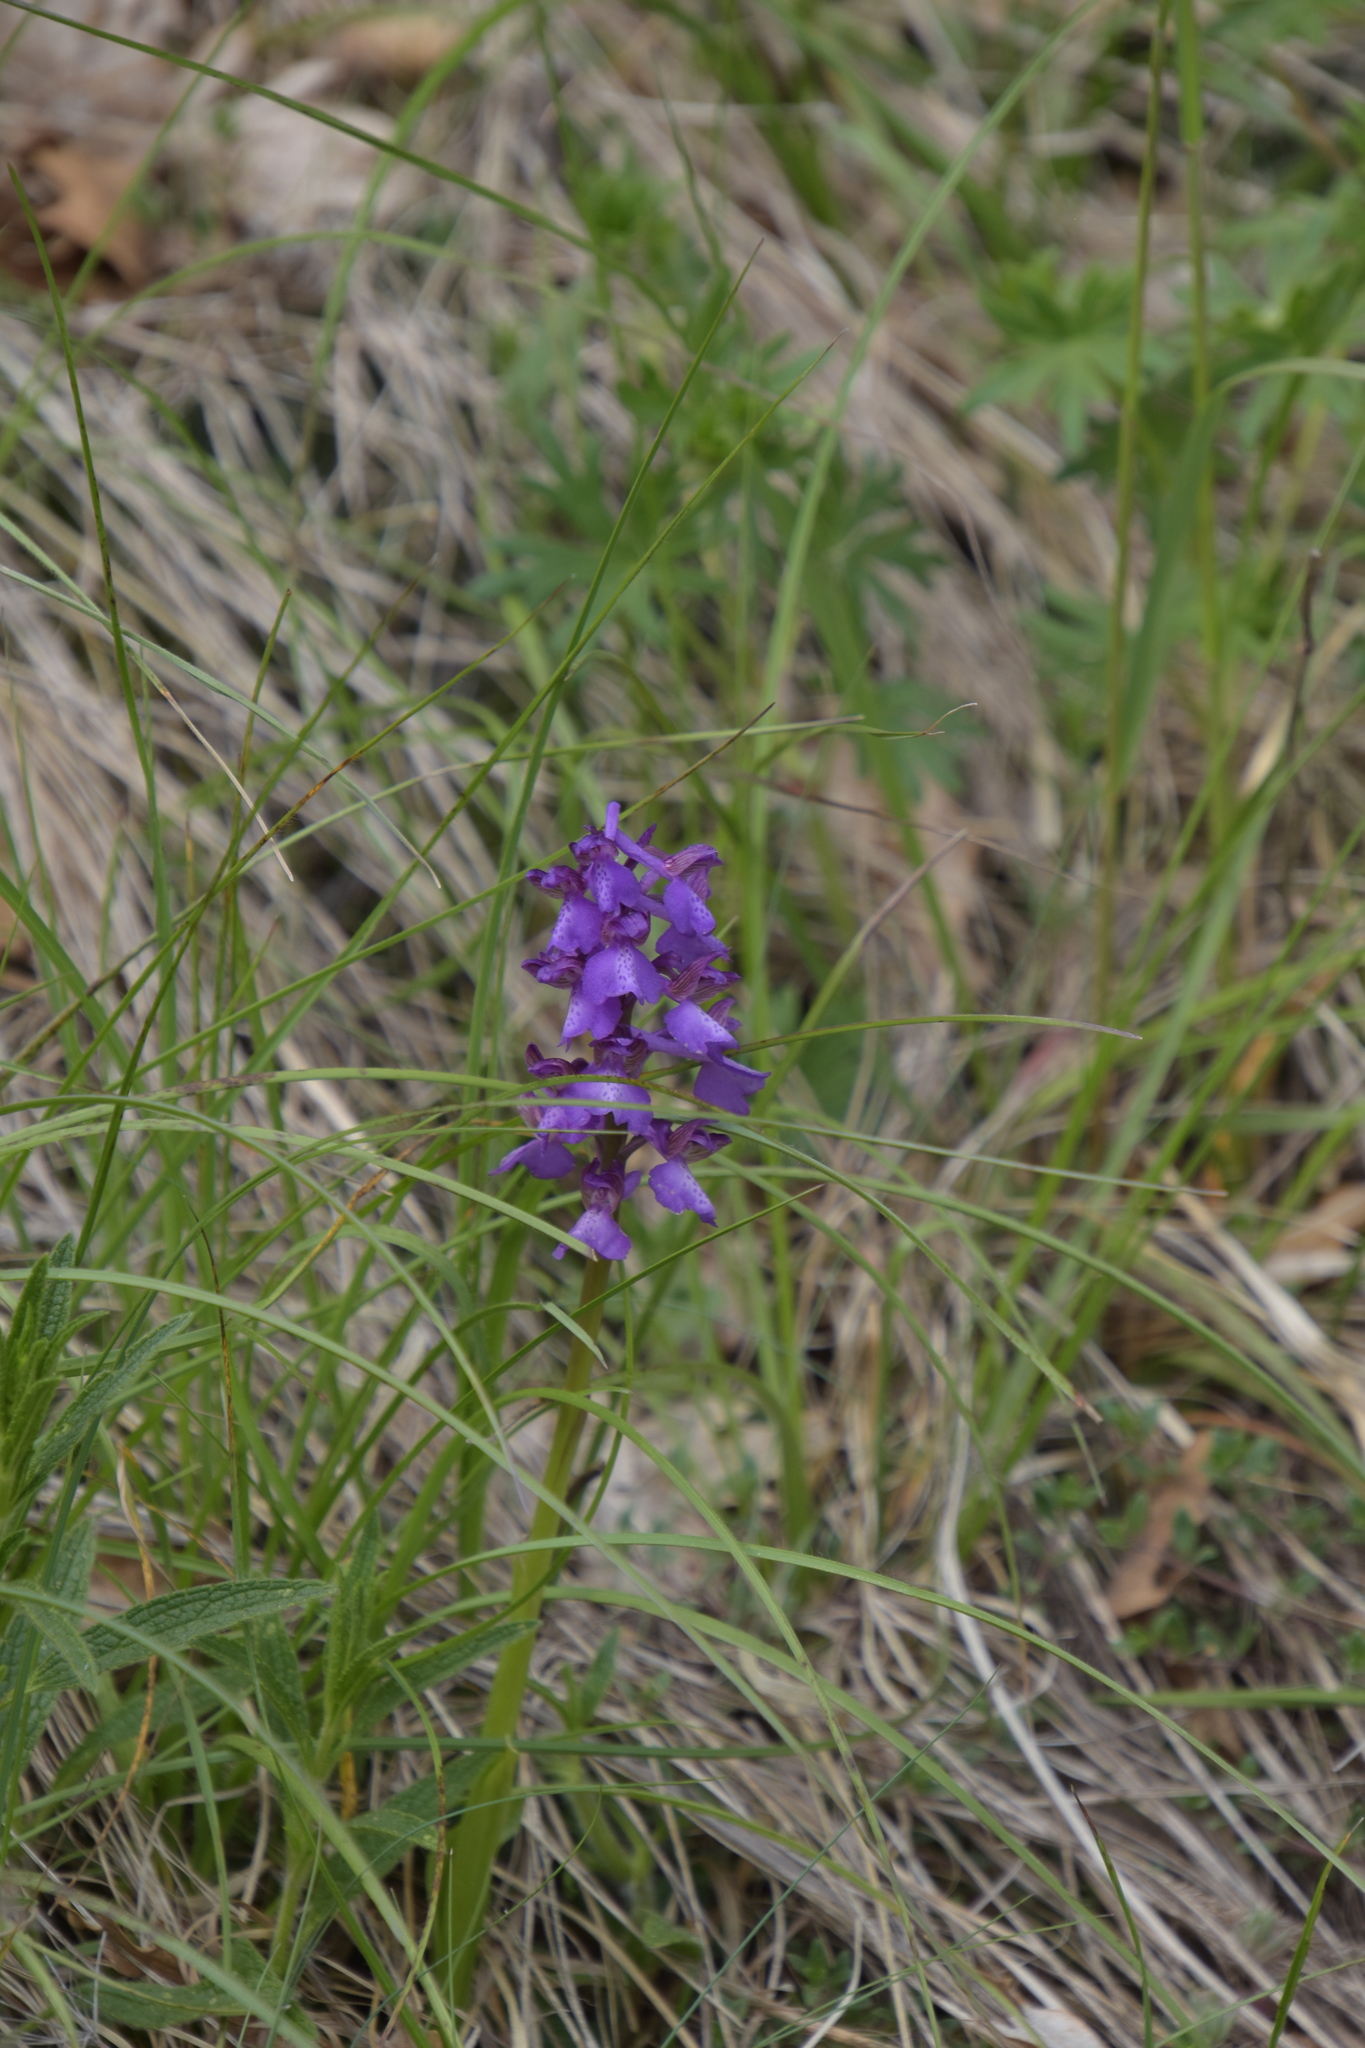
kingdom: Plantae
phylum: Tracheophyta
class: Liliopsida
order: Asparagales
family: Orchidaceae
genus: Anacamptis
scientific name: Anacamptis morio
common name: Green-winged orchid
